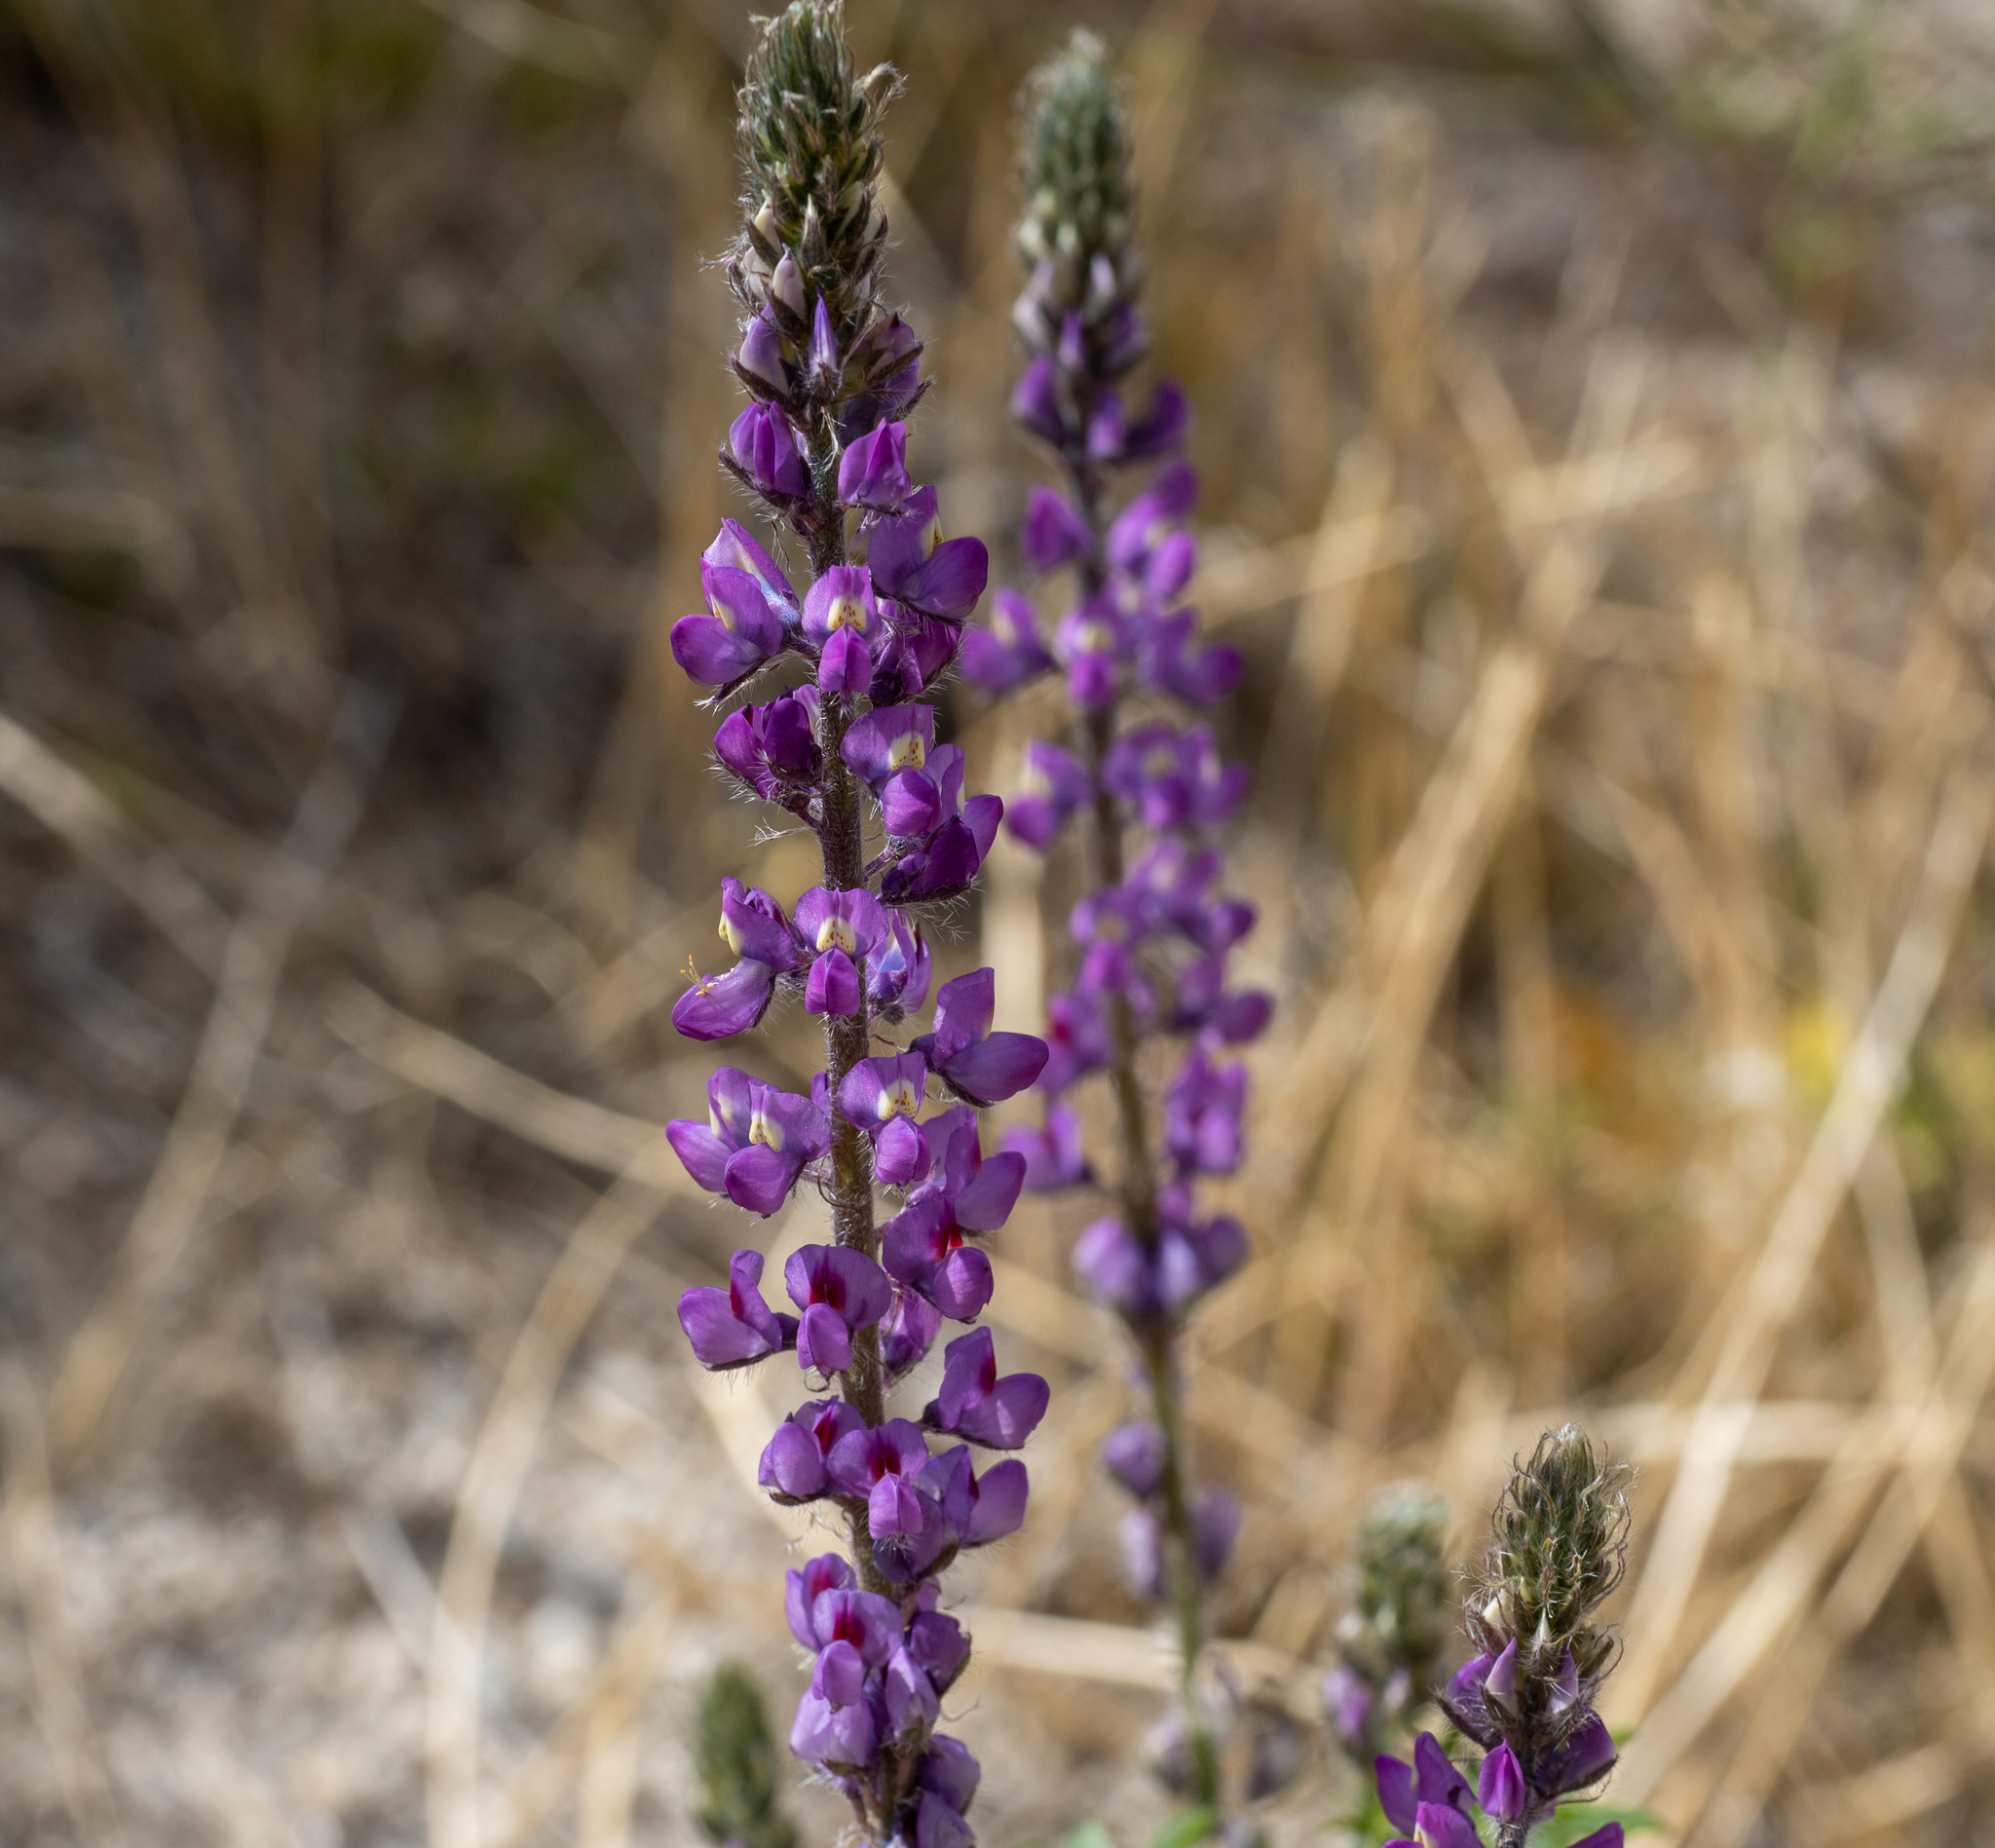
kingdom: Plantae
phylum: Tracheophyta
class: Magnoliopsida
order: Fabales
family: Fabaceae
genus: Lupinus
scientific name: Lupinus arizonicus
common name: Arizona lupine
